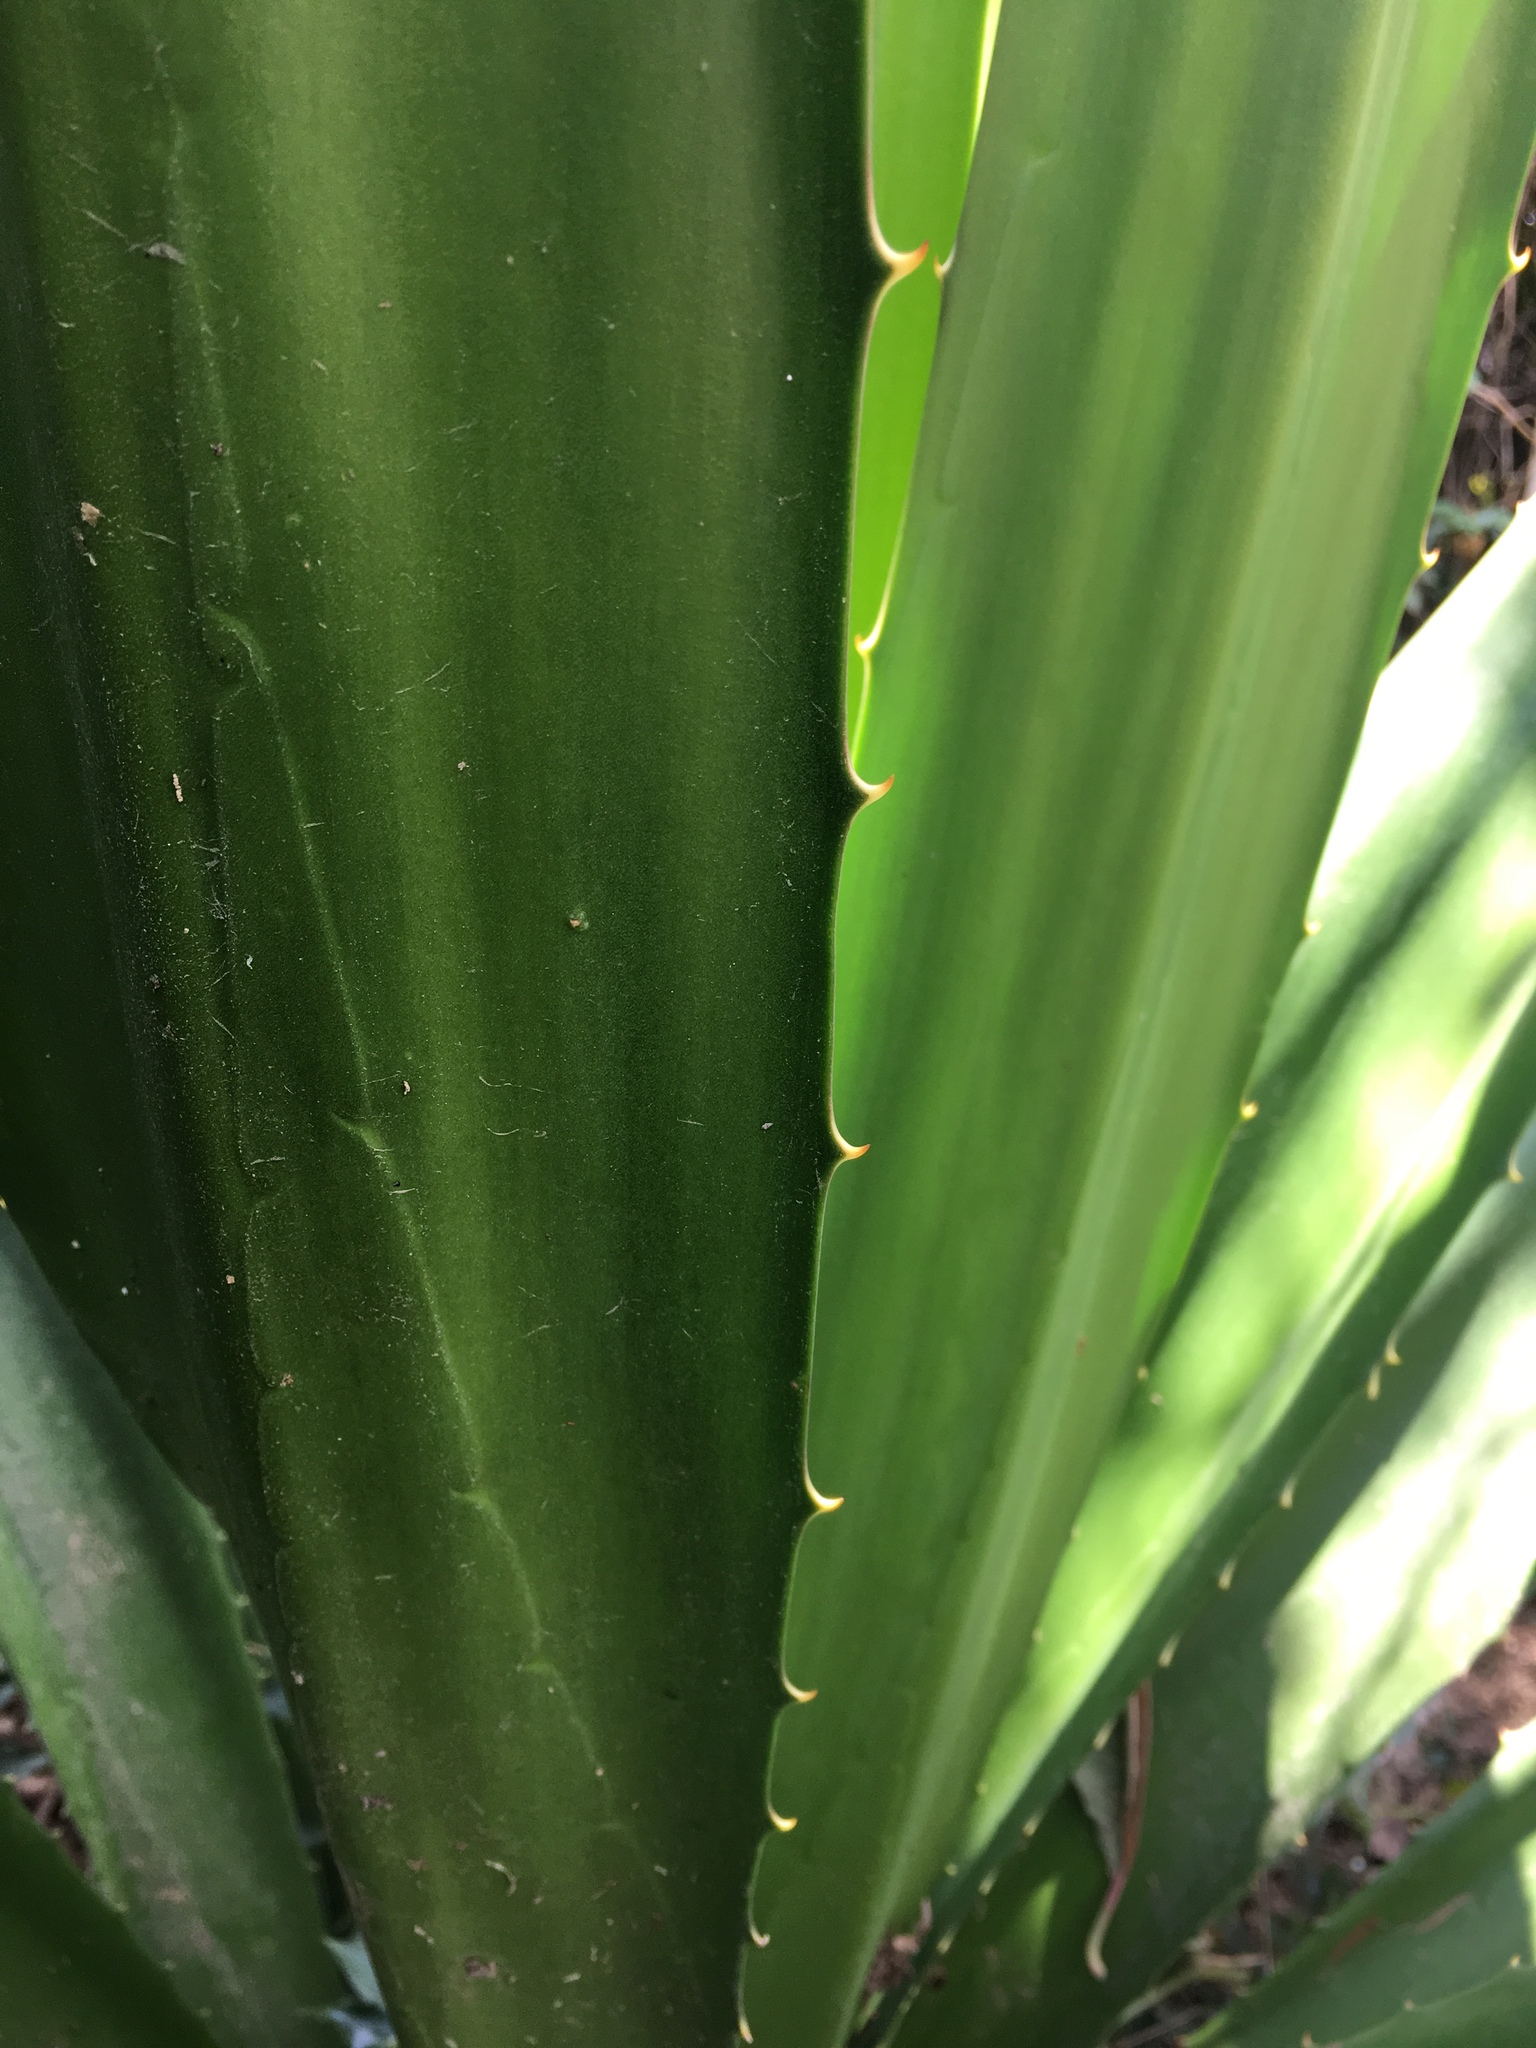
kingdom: Plantae
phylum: Tracheophyta
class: Liliopsida
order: Asparagales
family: Asparagaceae
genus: Furcraea
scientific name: Furcraea cabuya
